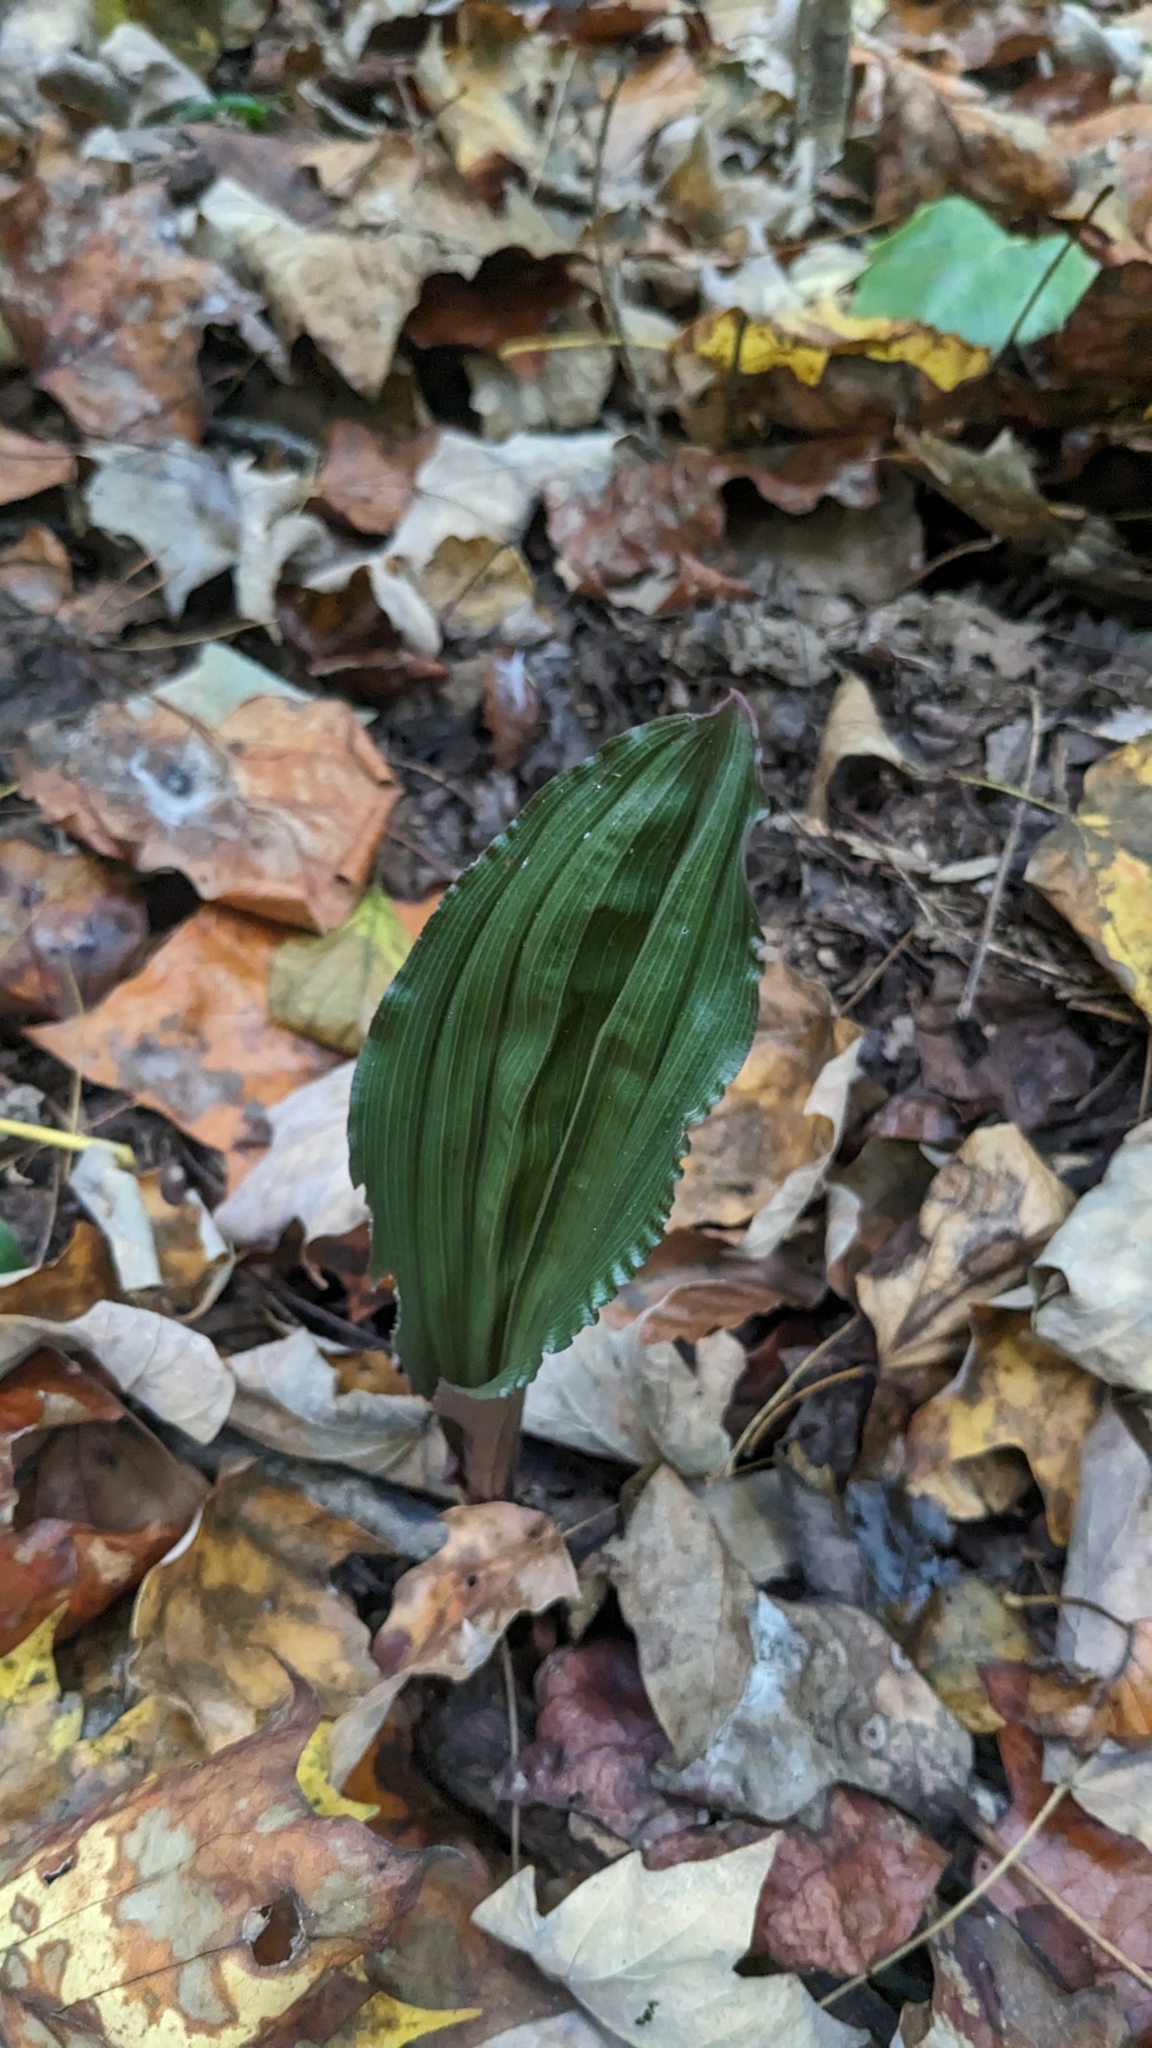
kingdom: Plantae
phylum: Tracheophyta
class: Liliopsida
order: Asparagales
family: Orchidaceae
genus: Aplectrum
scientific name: Aplectrum hyemale
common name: Adam-and-eve
